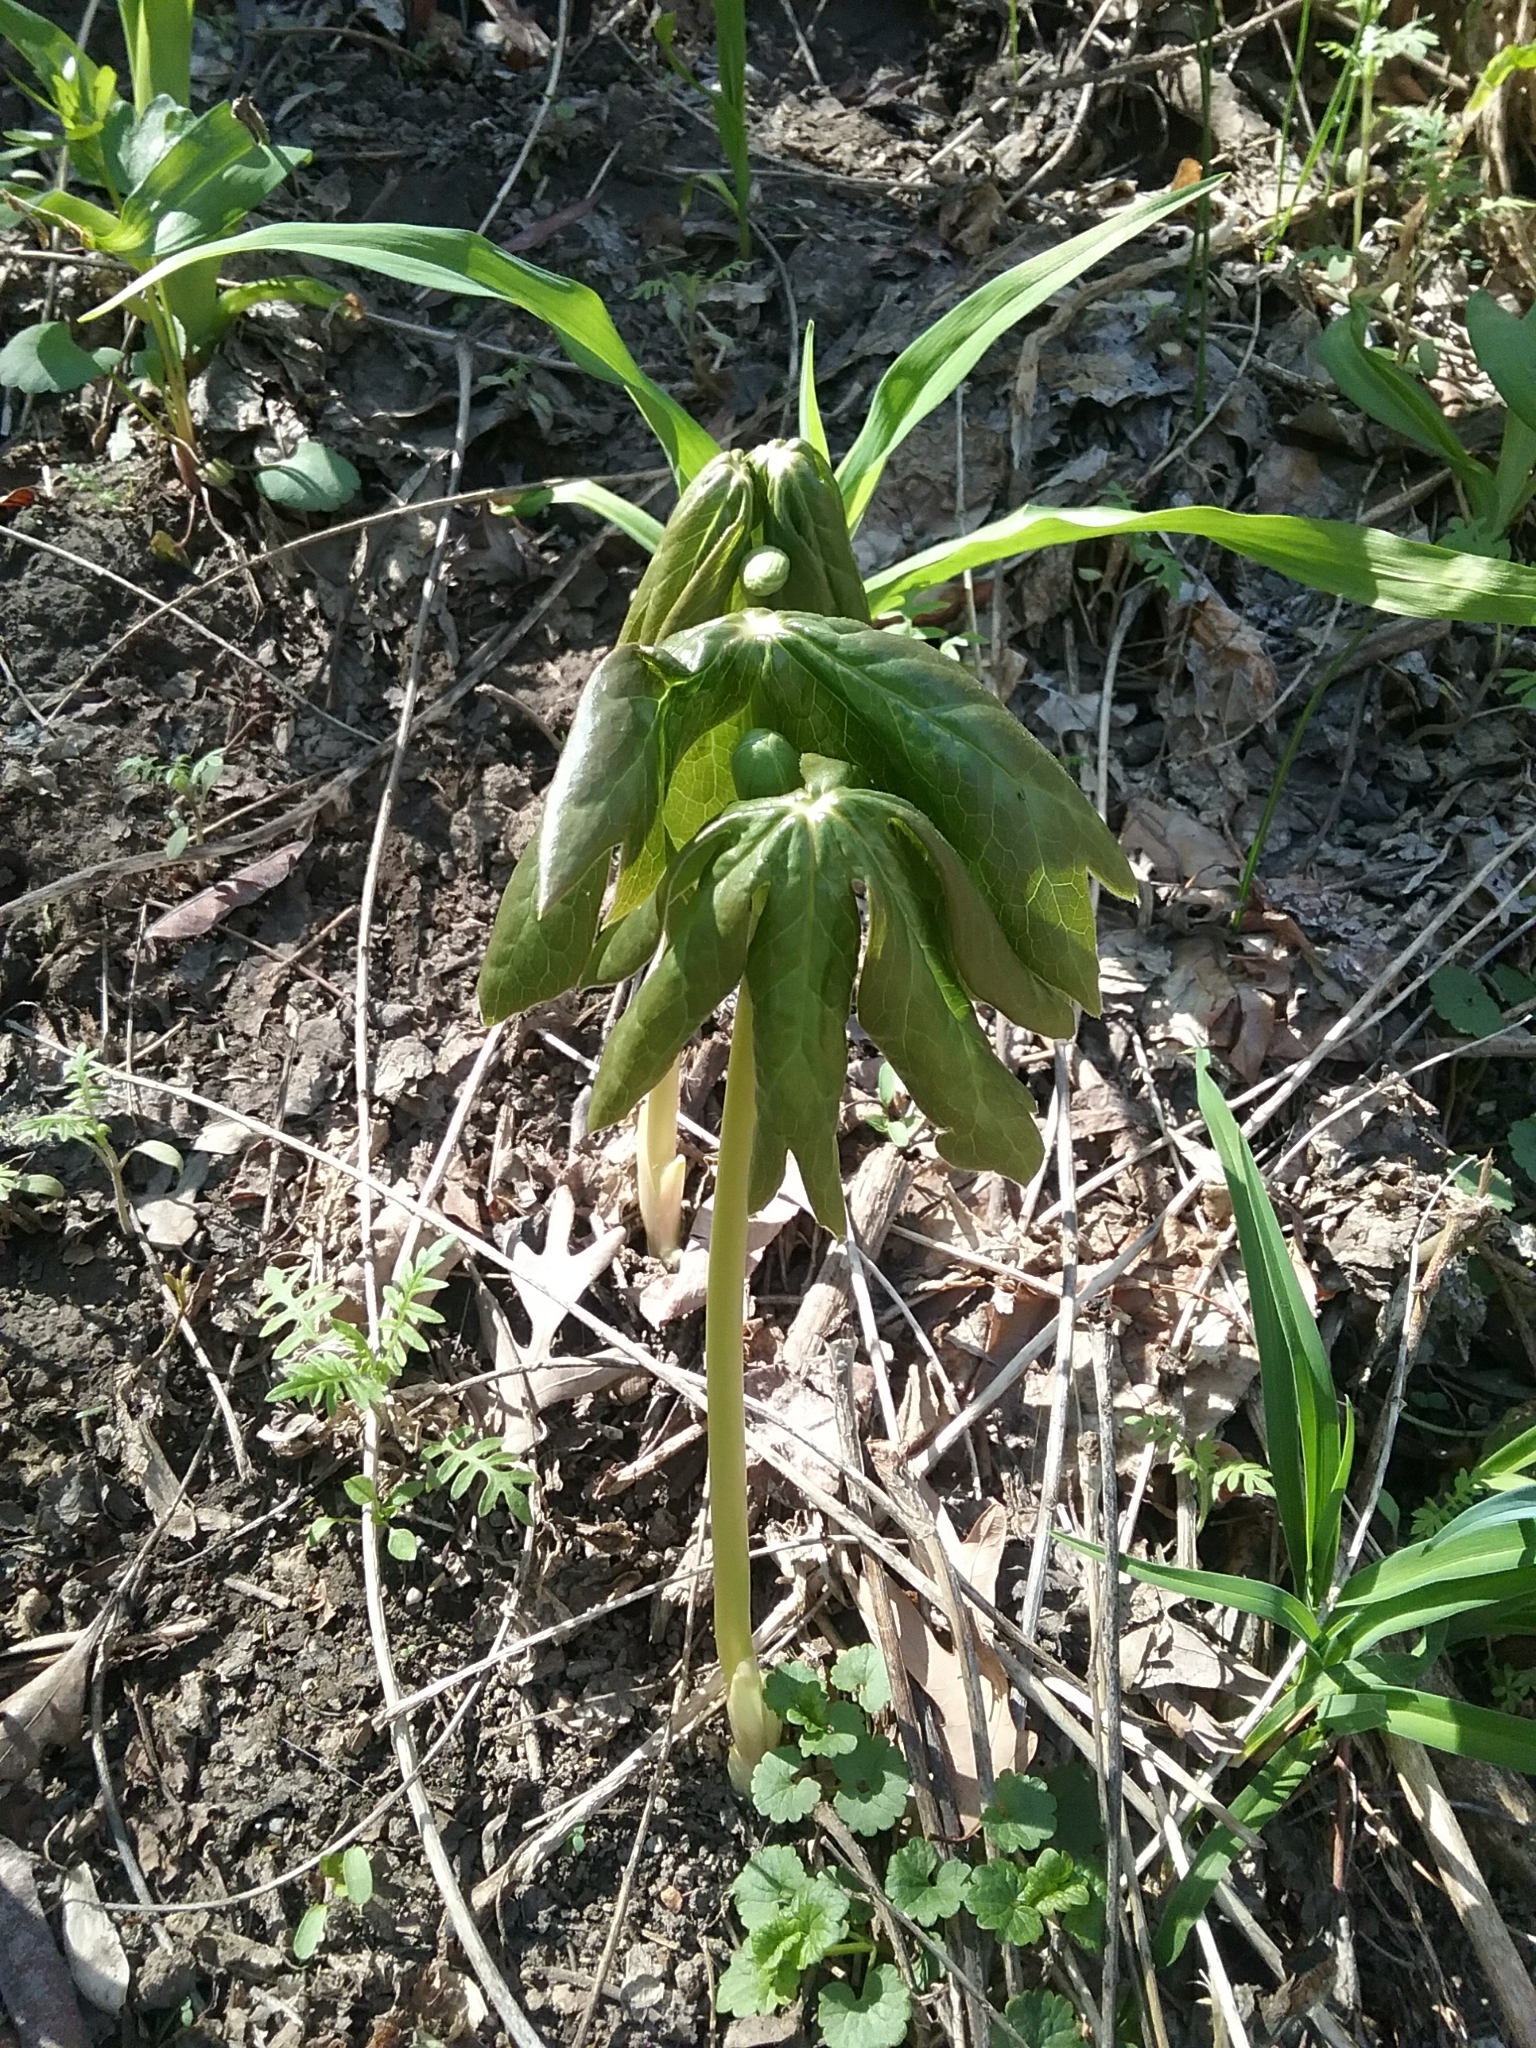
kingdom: Plantae
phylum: Tracheophyta
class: Magnoliopsida
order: Ranunculales
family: Berberidaceae
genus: Podophyllum
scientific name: Podophyllum peltatum
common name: Wild mandrake
